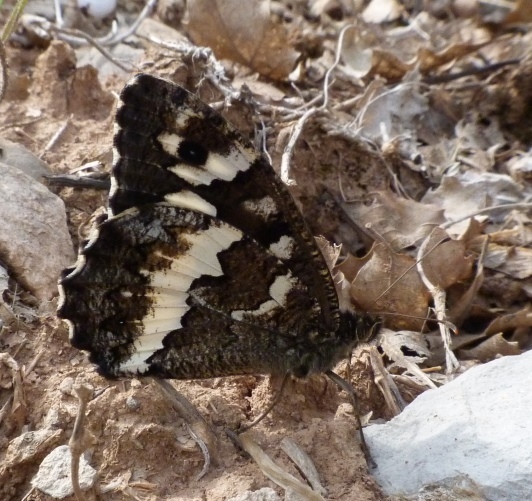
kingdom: Animalia
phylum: Arthropoda
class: Insecta
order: Lepidoptera
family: Lycaenidae
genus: Loweia
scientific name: Loweia tityrus
